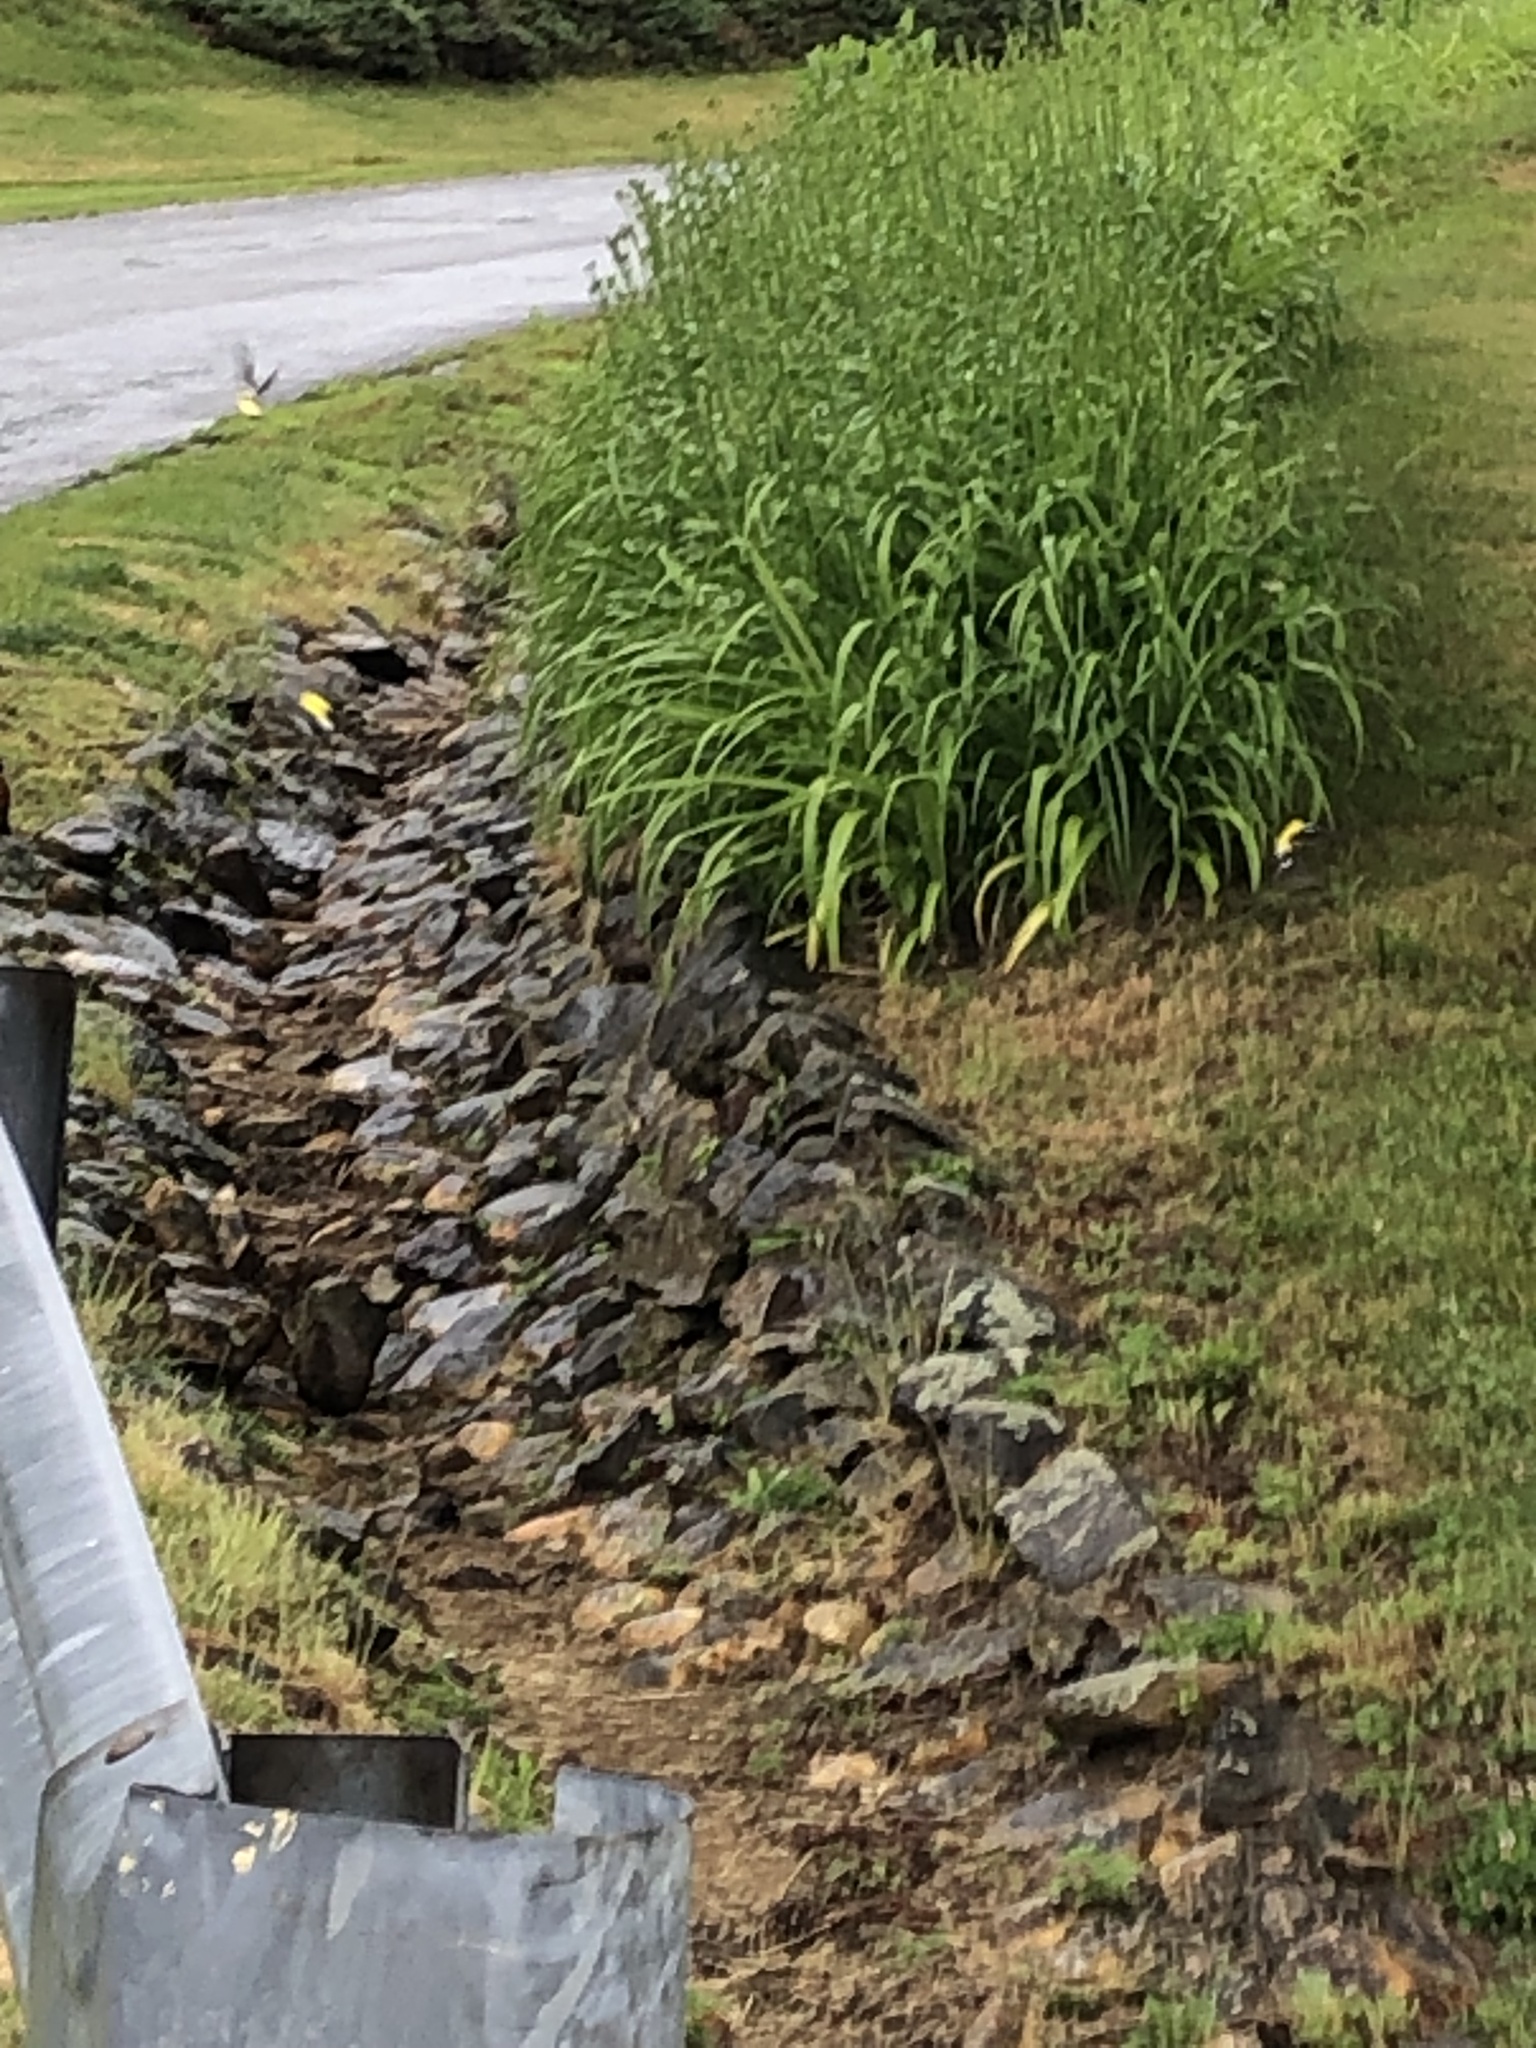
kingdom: Animalia
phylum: Chordata
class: Aves
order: Passeriformes
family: Fringillidae
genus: Spinus
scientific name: Spinus tristis
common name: American goldfinch
